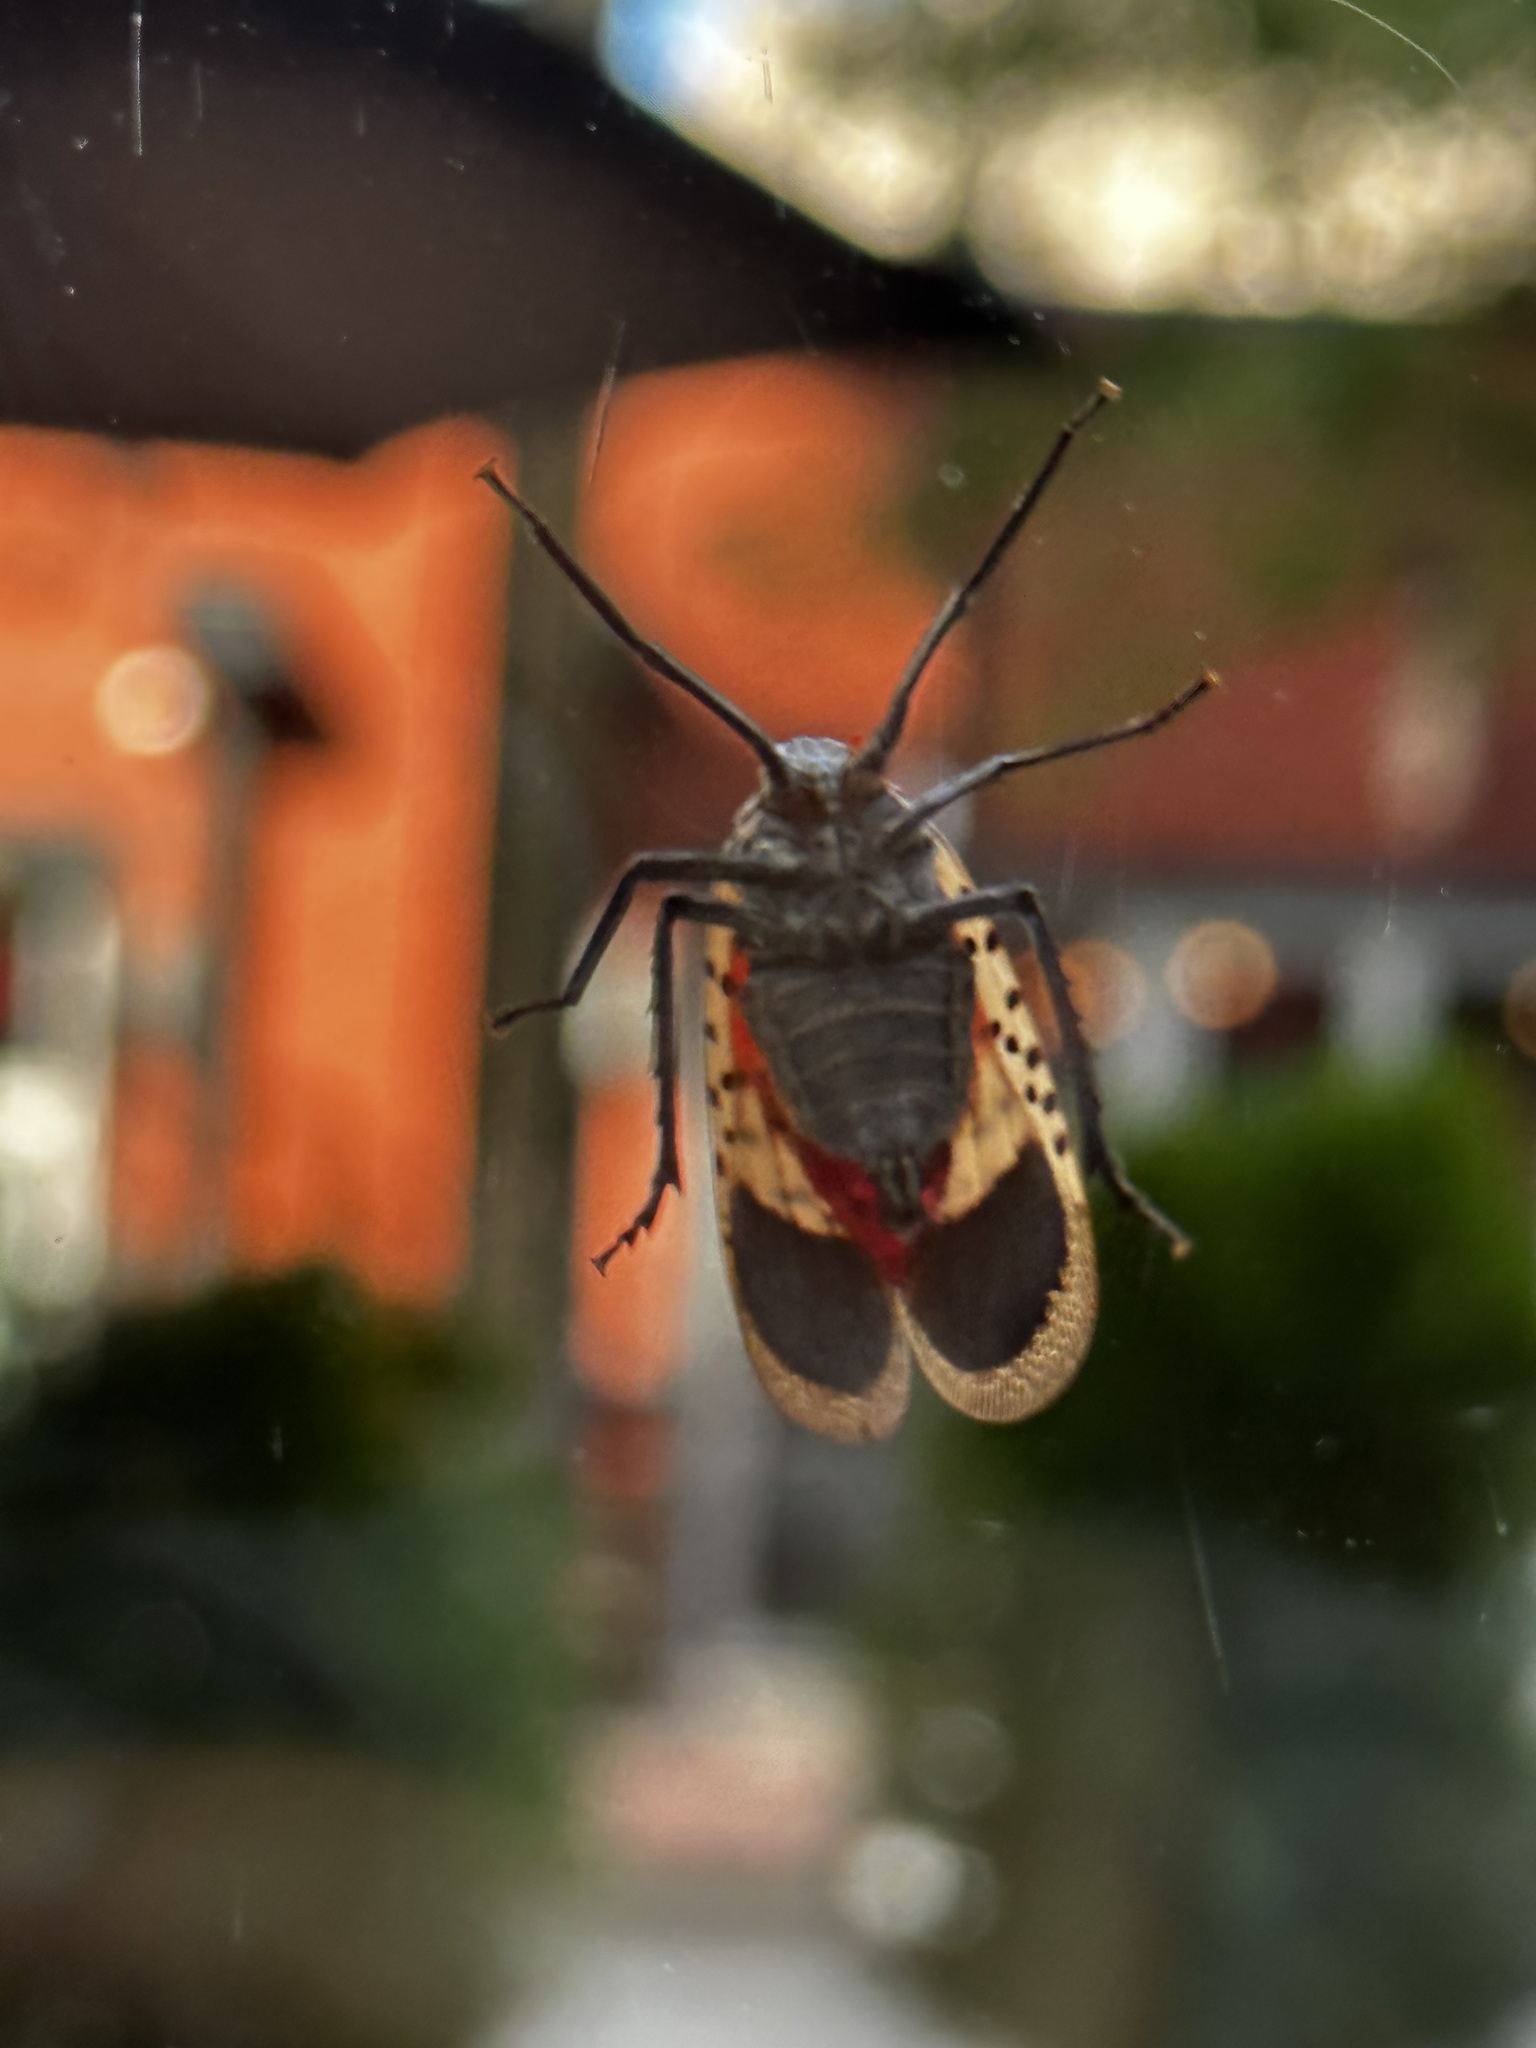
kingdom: Animalia
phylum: Arthropoda
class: Insecta
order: Hemiptera
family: Fulgoridae
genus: Lycorma
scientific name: Lycorma delicatula
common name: Spotted lanternfly
